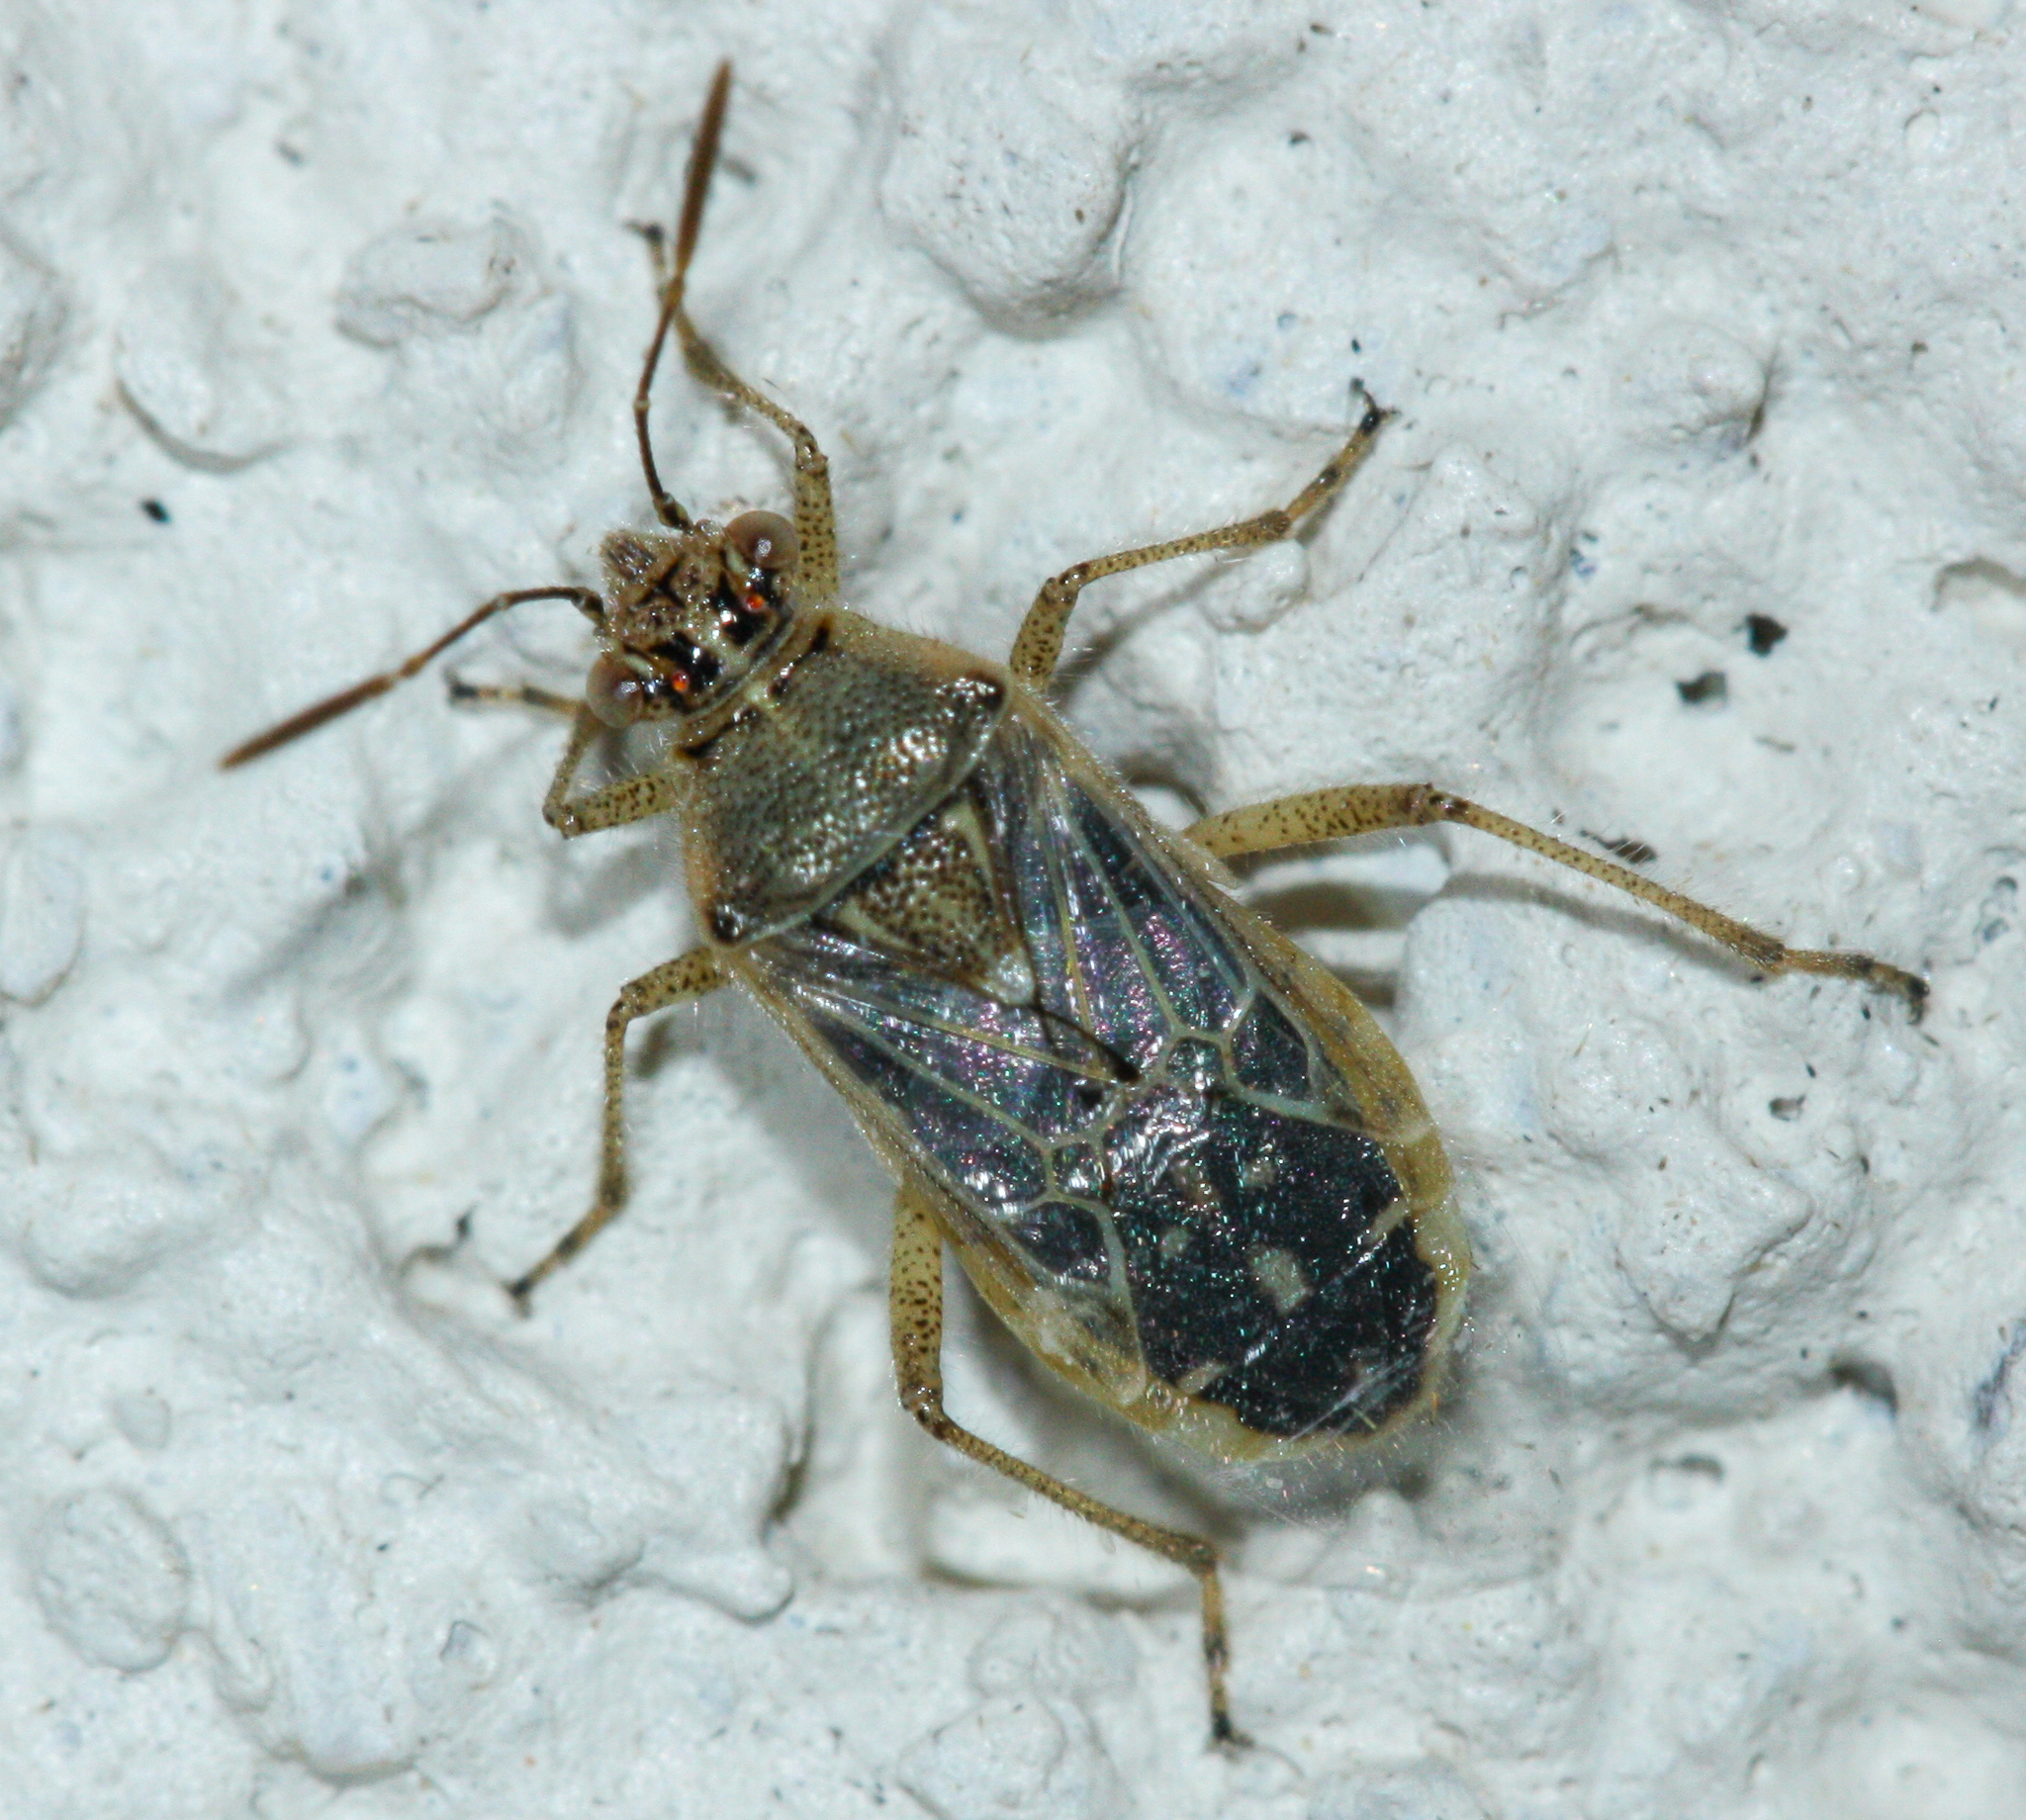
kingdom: Animalia
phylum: Arthropoda
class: Insecta
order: Hemiptera
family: Rhopalidae
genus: Liorhyssus
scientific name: Liorhyssus hyalinus
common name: Scentless plant bug
